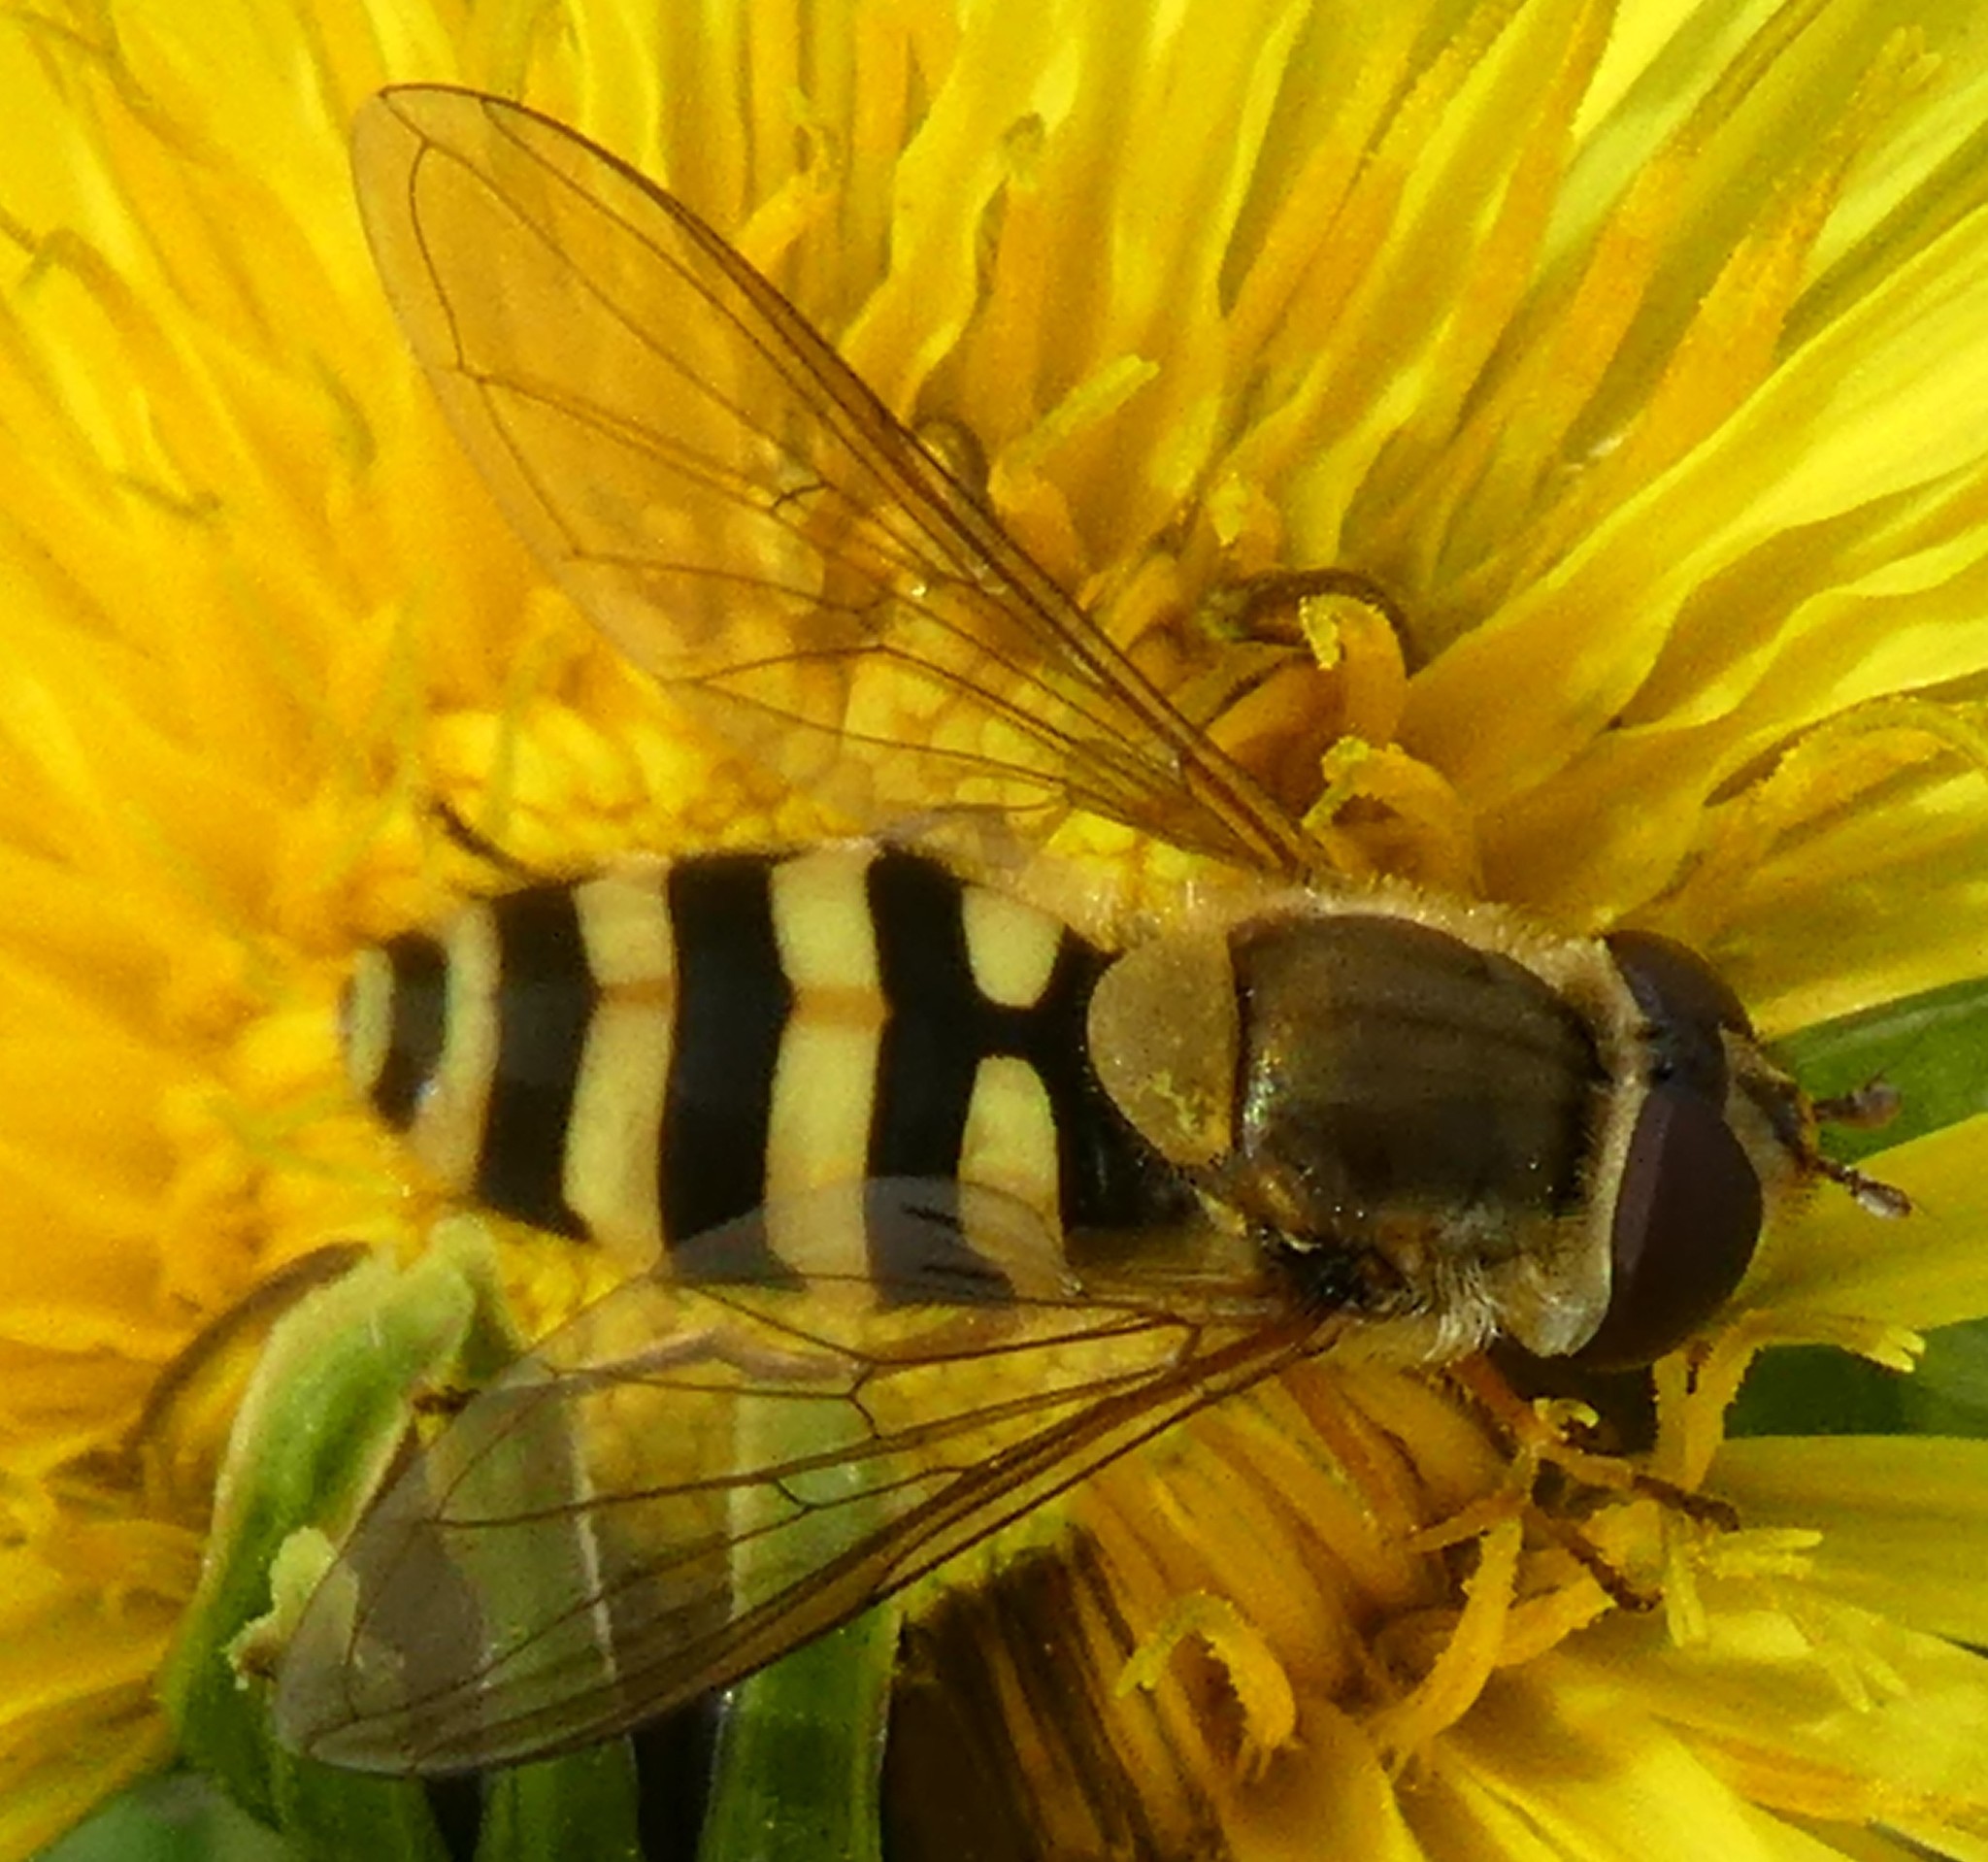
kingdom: Animalia
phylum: Arthropoda
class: Insecta
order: Diptera
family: Syrphidae
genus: Syrphus
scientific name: Syrphus ribesii
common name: Common flower fly
